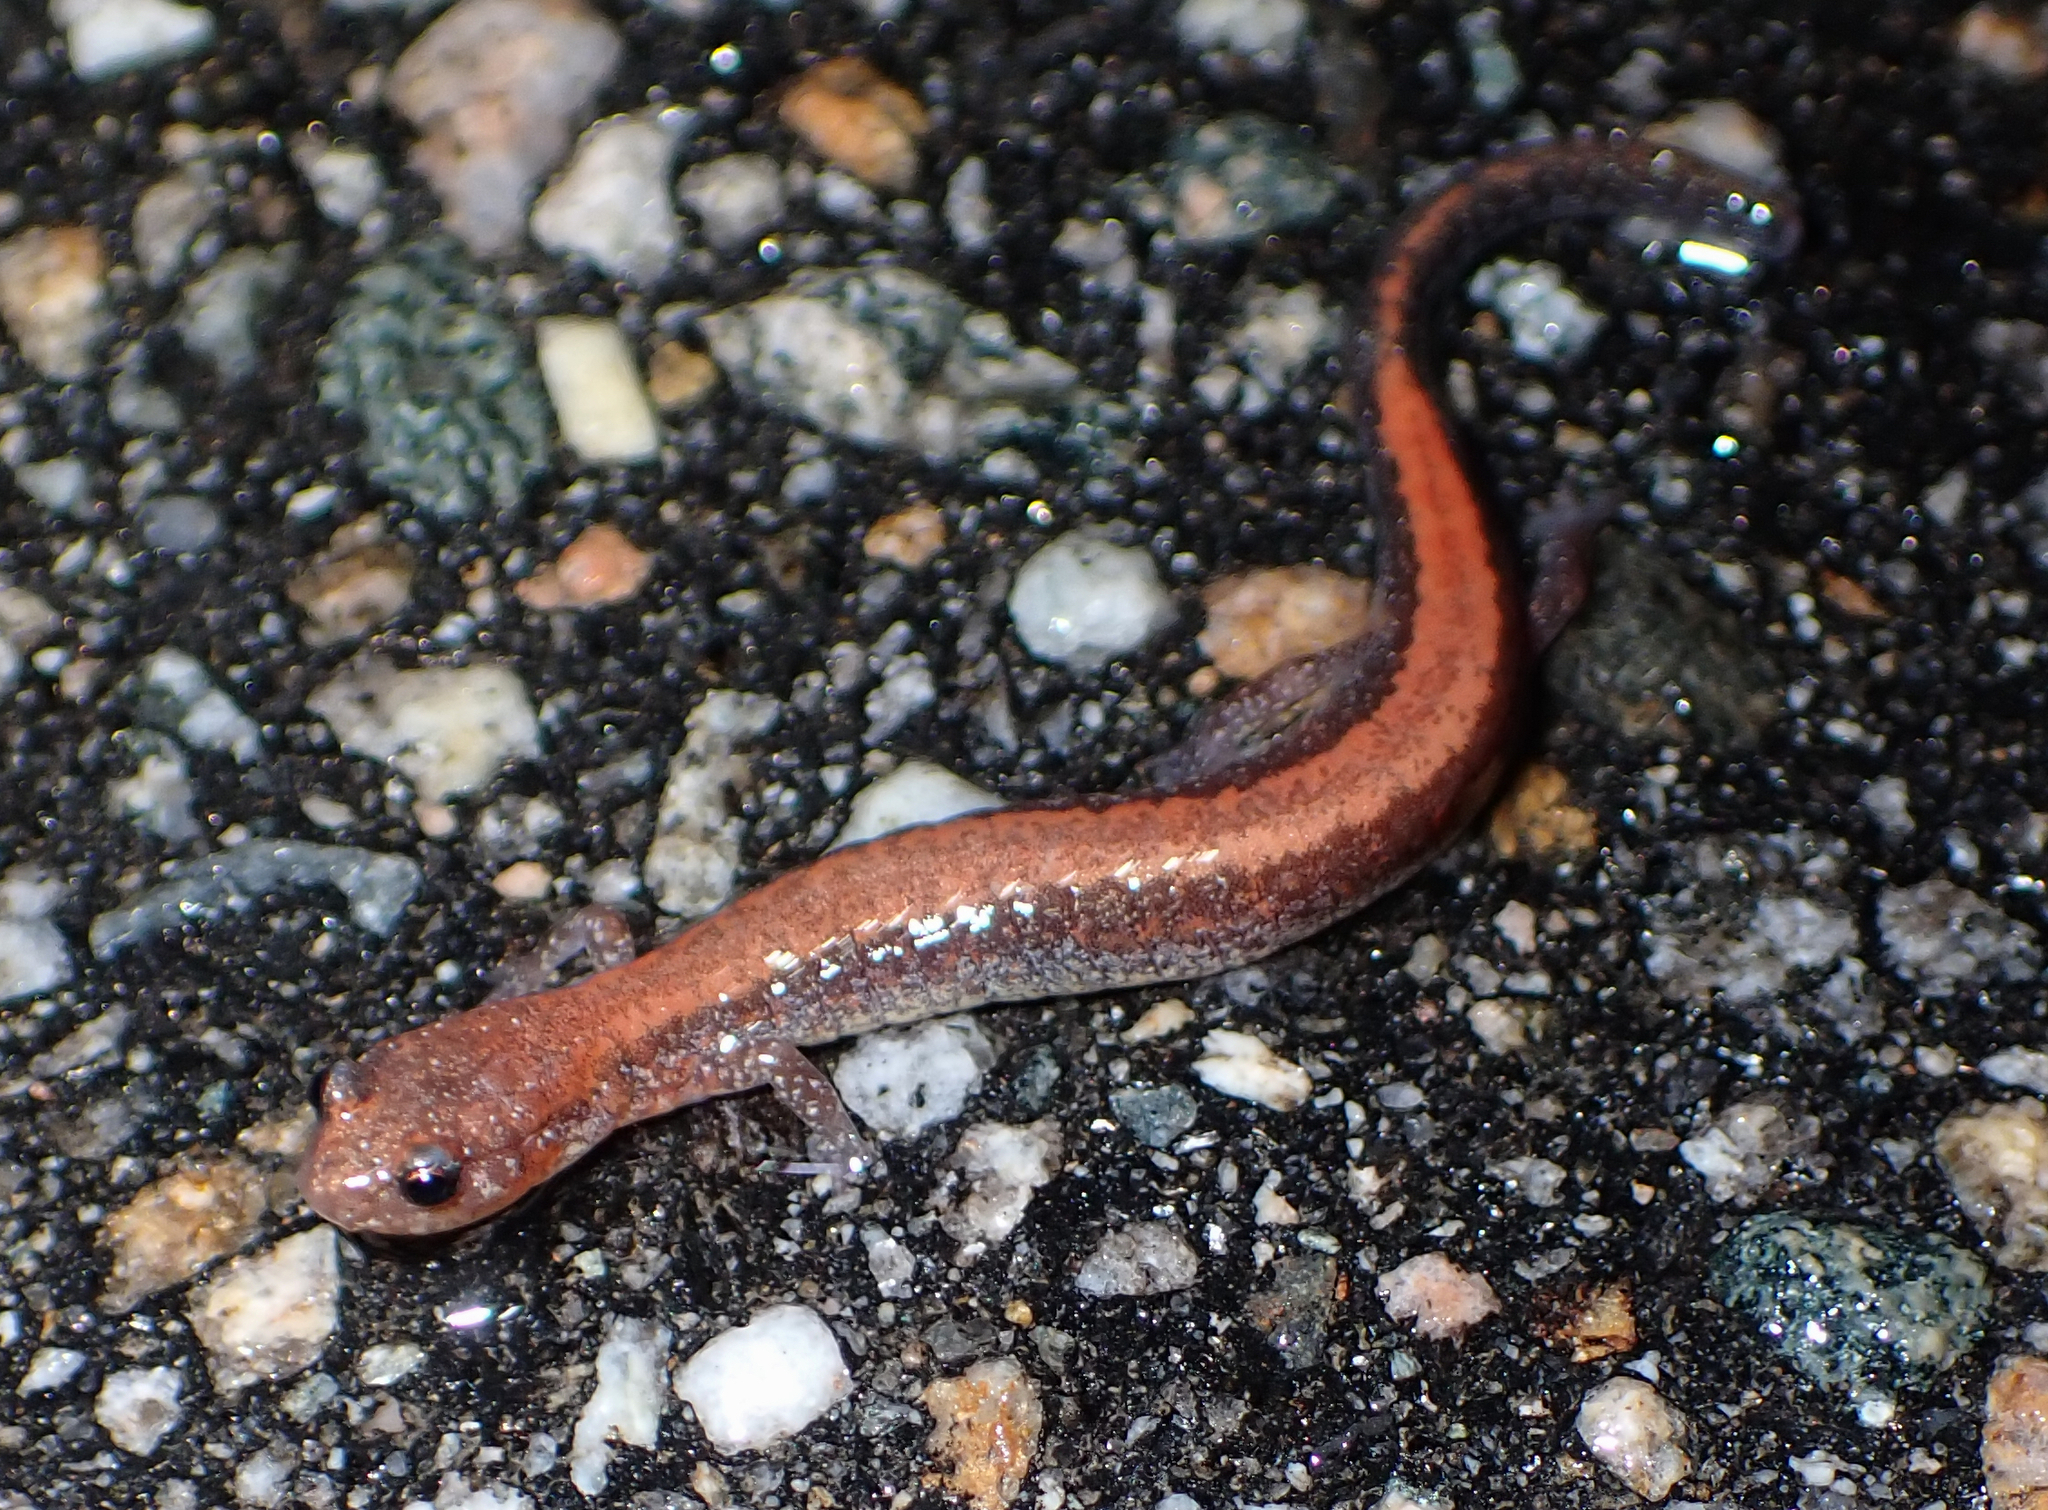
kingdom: Animalia
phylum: Chordata
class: Amphibia
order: Caudata
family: Plethodontidae
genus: Plethodon
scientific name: Plethodon cinereus
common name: Redback salamander
